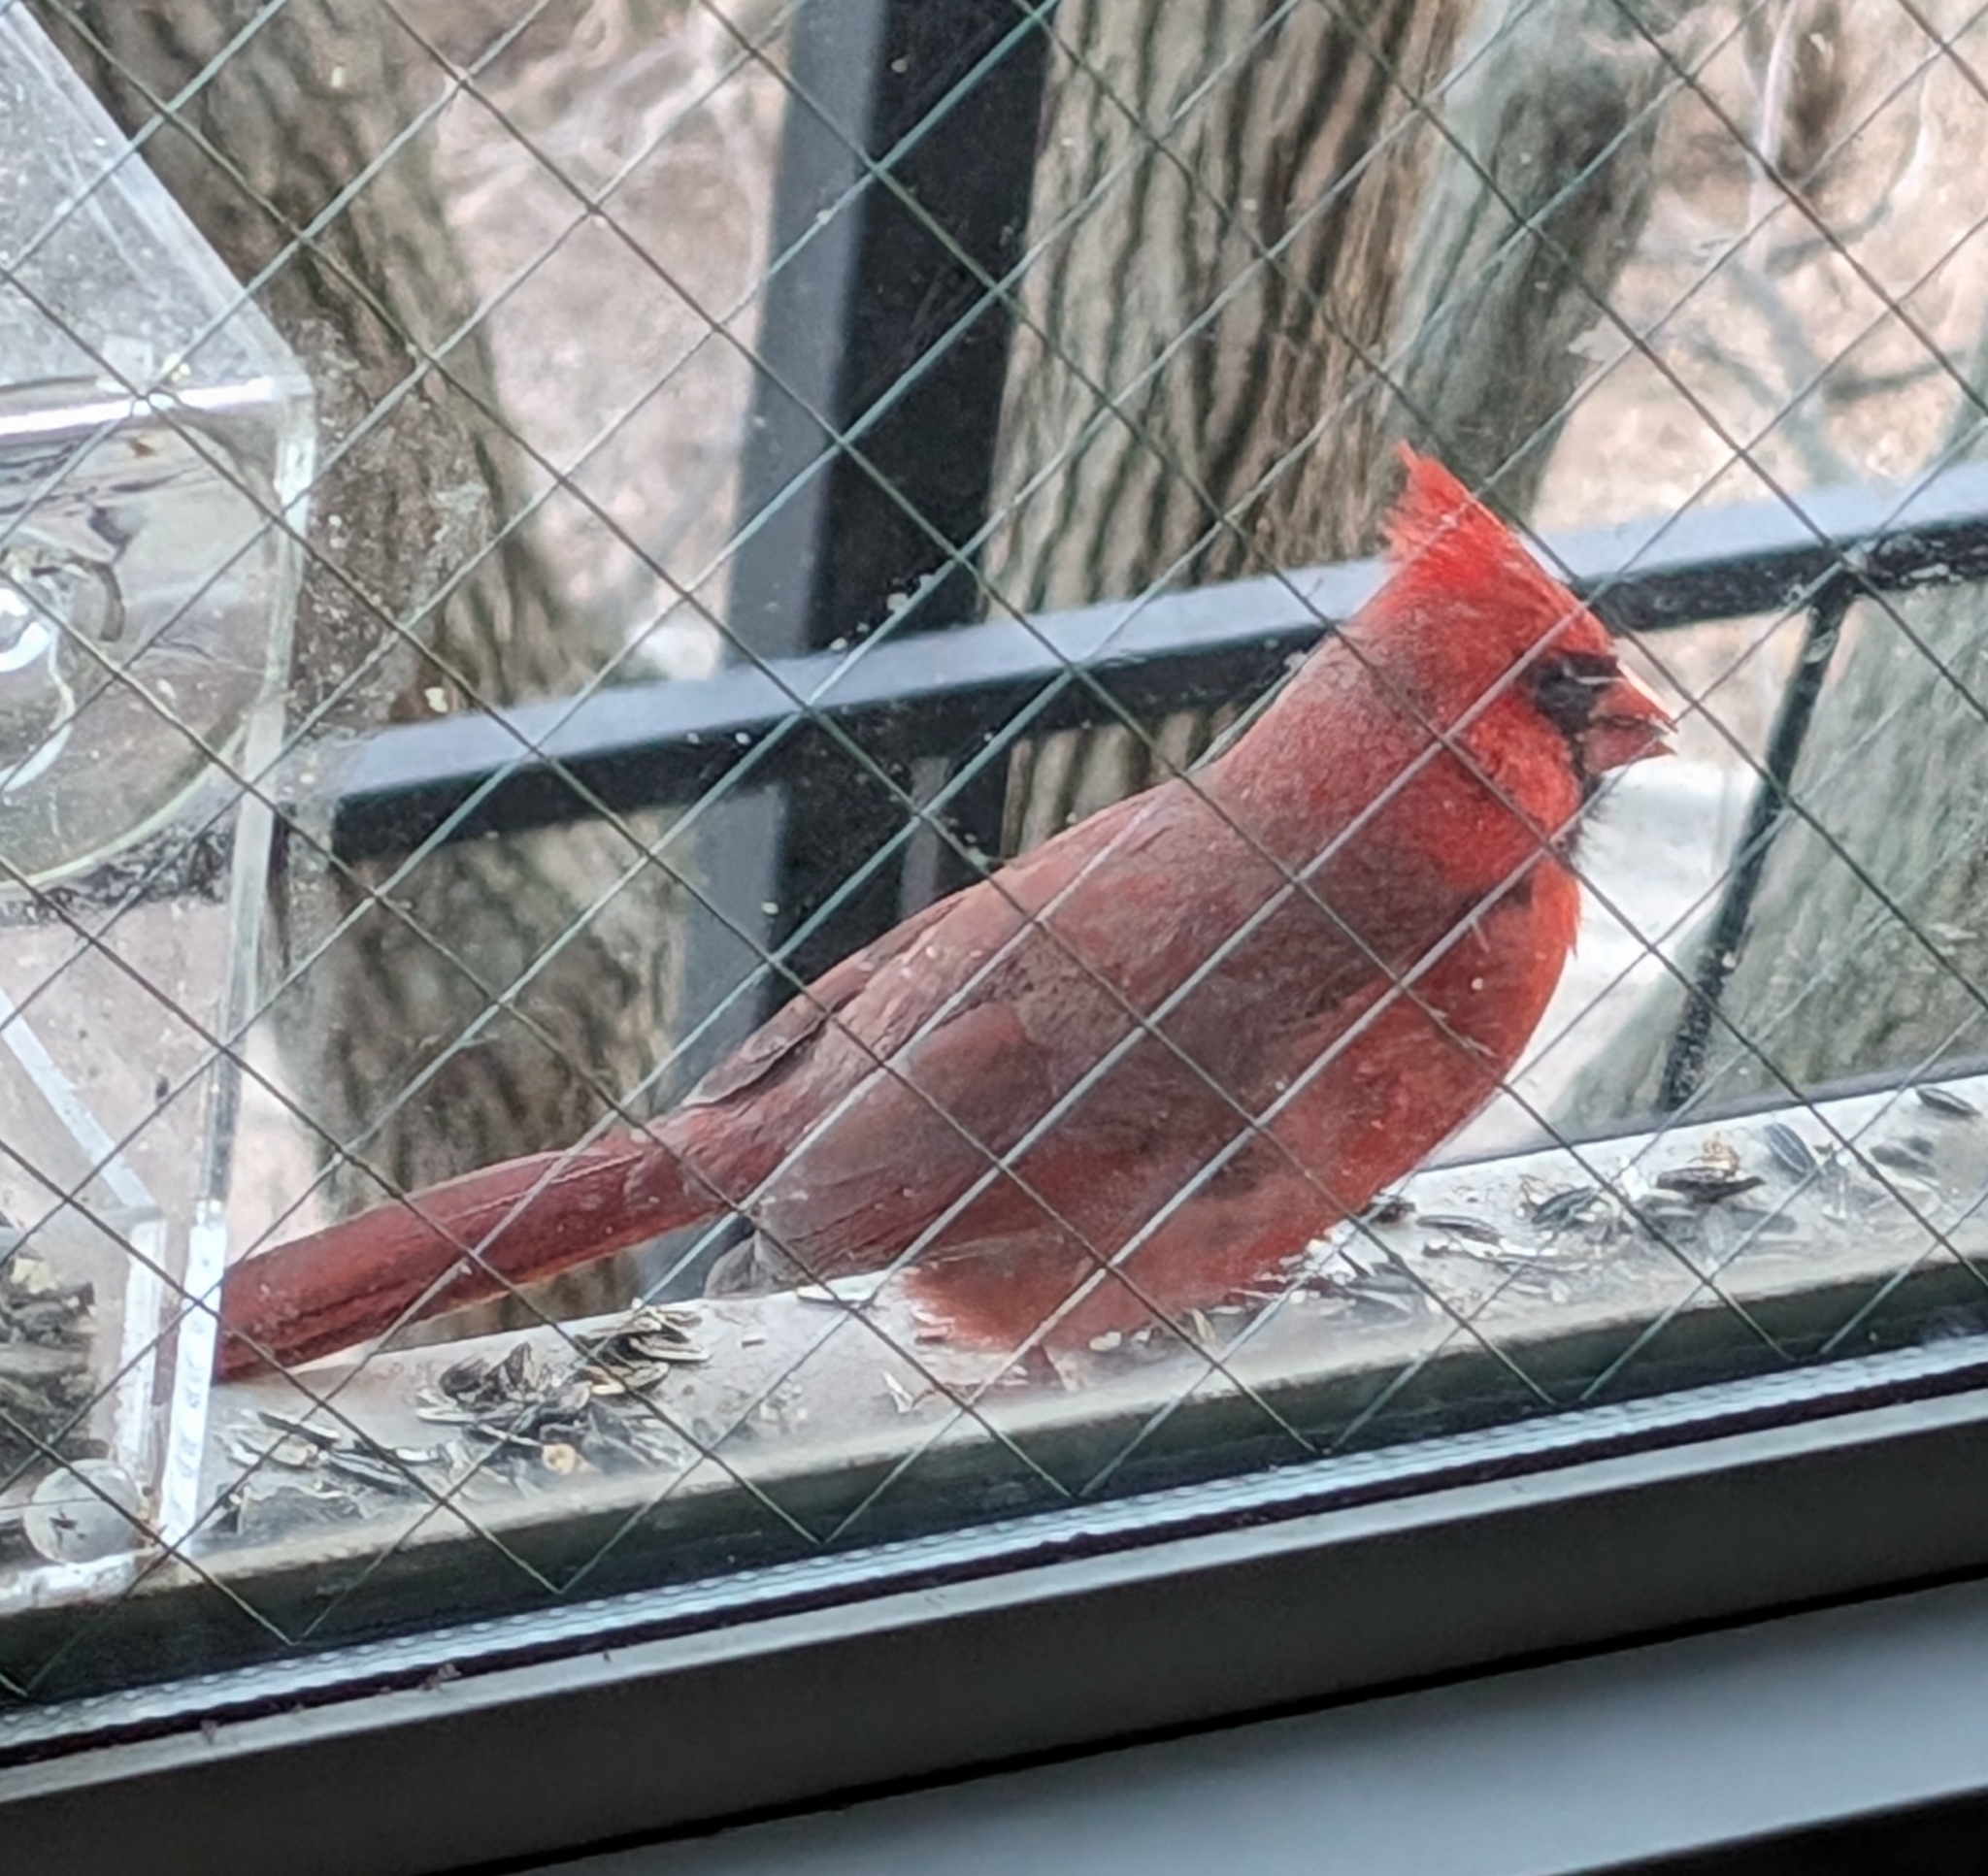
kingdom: Animalia
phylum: Chordata
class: Aves
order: Passeriformes
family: Cardinalidae
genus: Cardinalis
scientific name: Cardinalis cardinalis
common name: Northern cardinal
